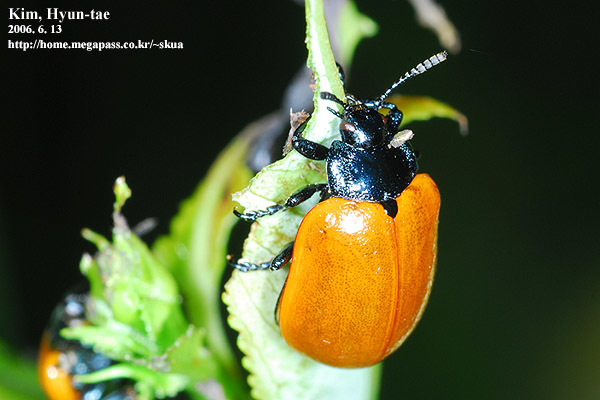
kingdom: Animalia
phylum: Arthropoda
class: Insecta
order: Coleoptera
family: Chrysomelidae
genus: Chrysomela
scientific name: Chrysomela populi
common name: Red poplar leaf beetle
